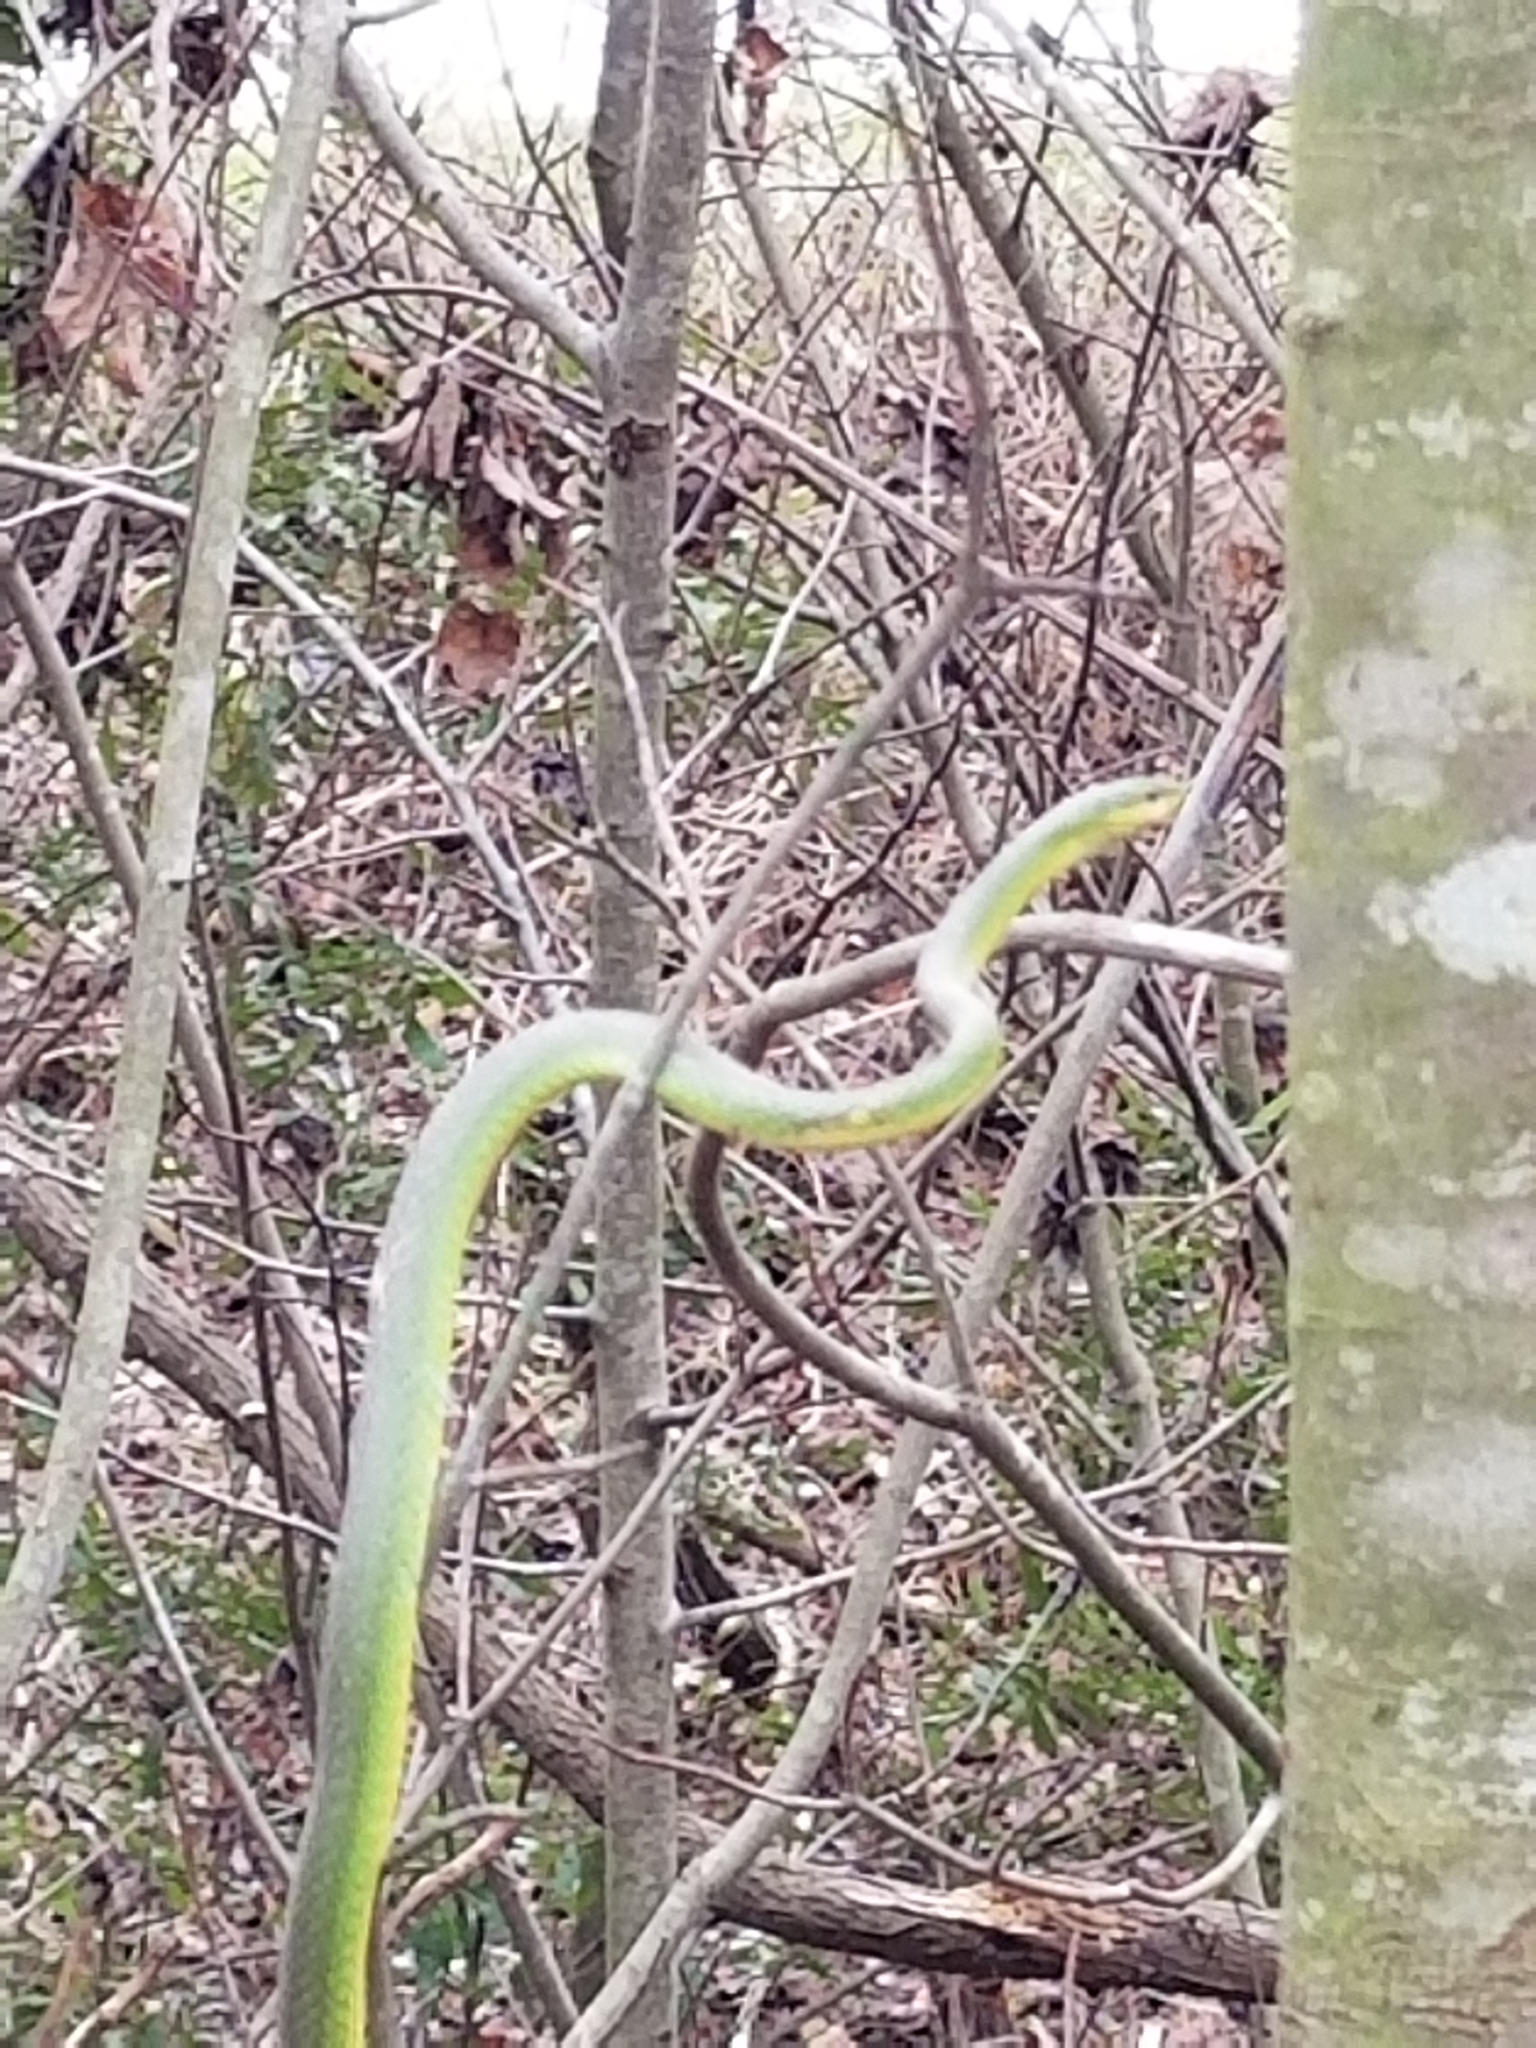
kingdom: Animalia
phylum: Chordata
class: Squamata
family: Colubridae
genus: Opheodrys
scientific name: Opheodrys aestivus
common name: Rough greensnake
